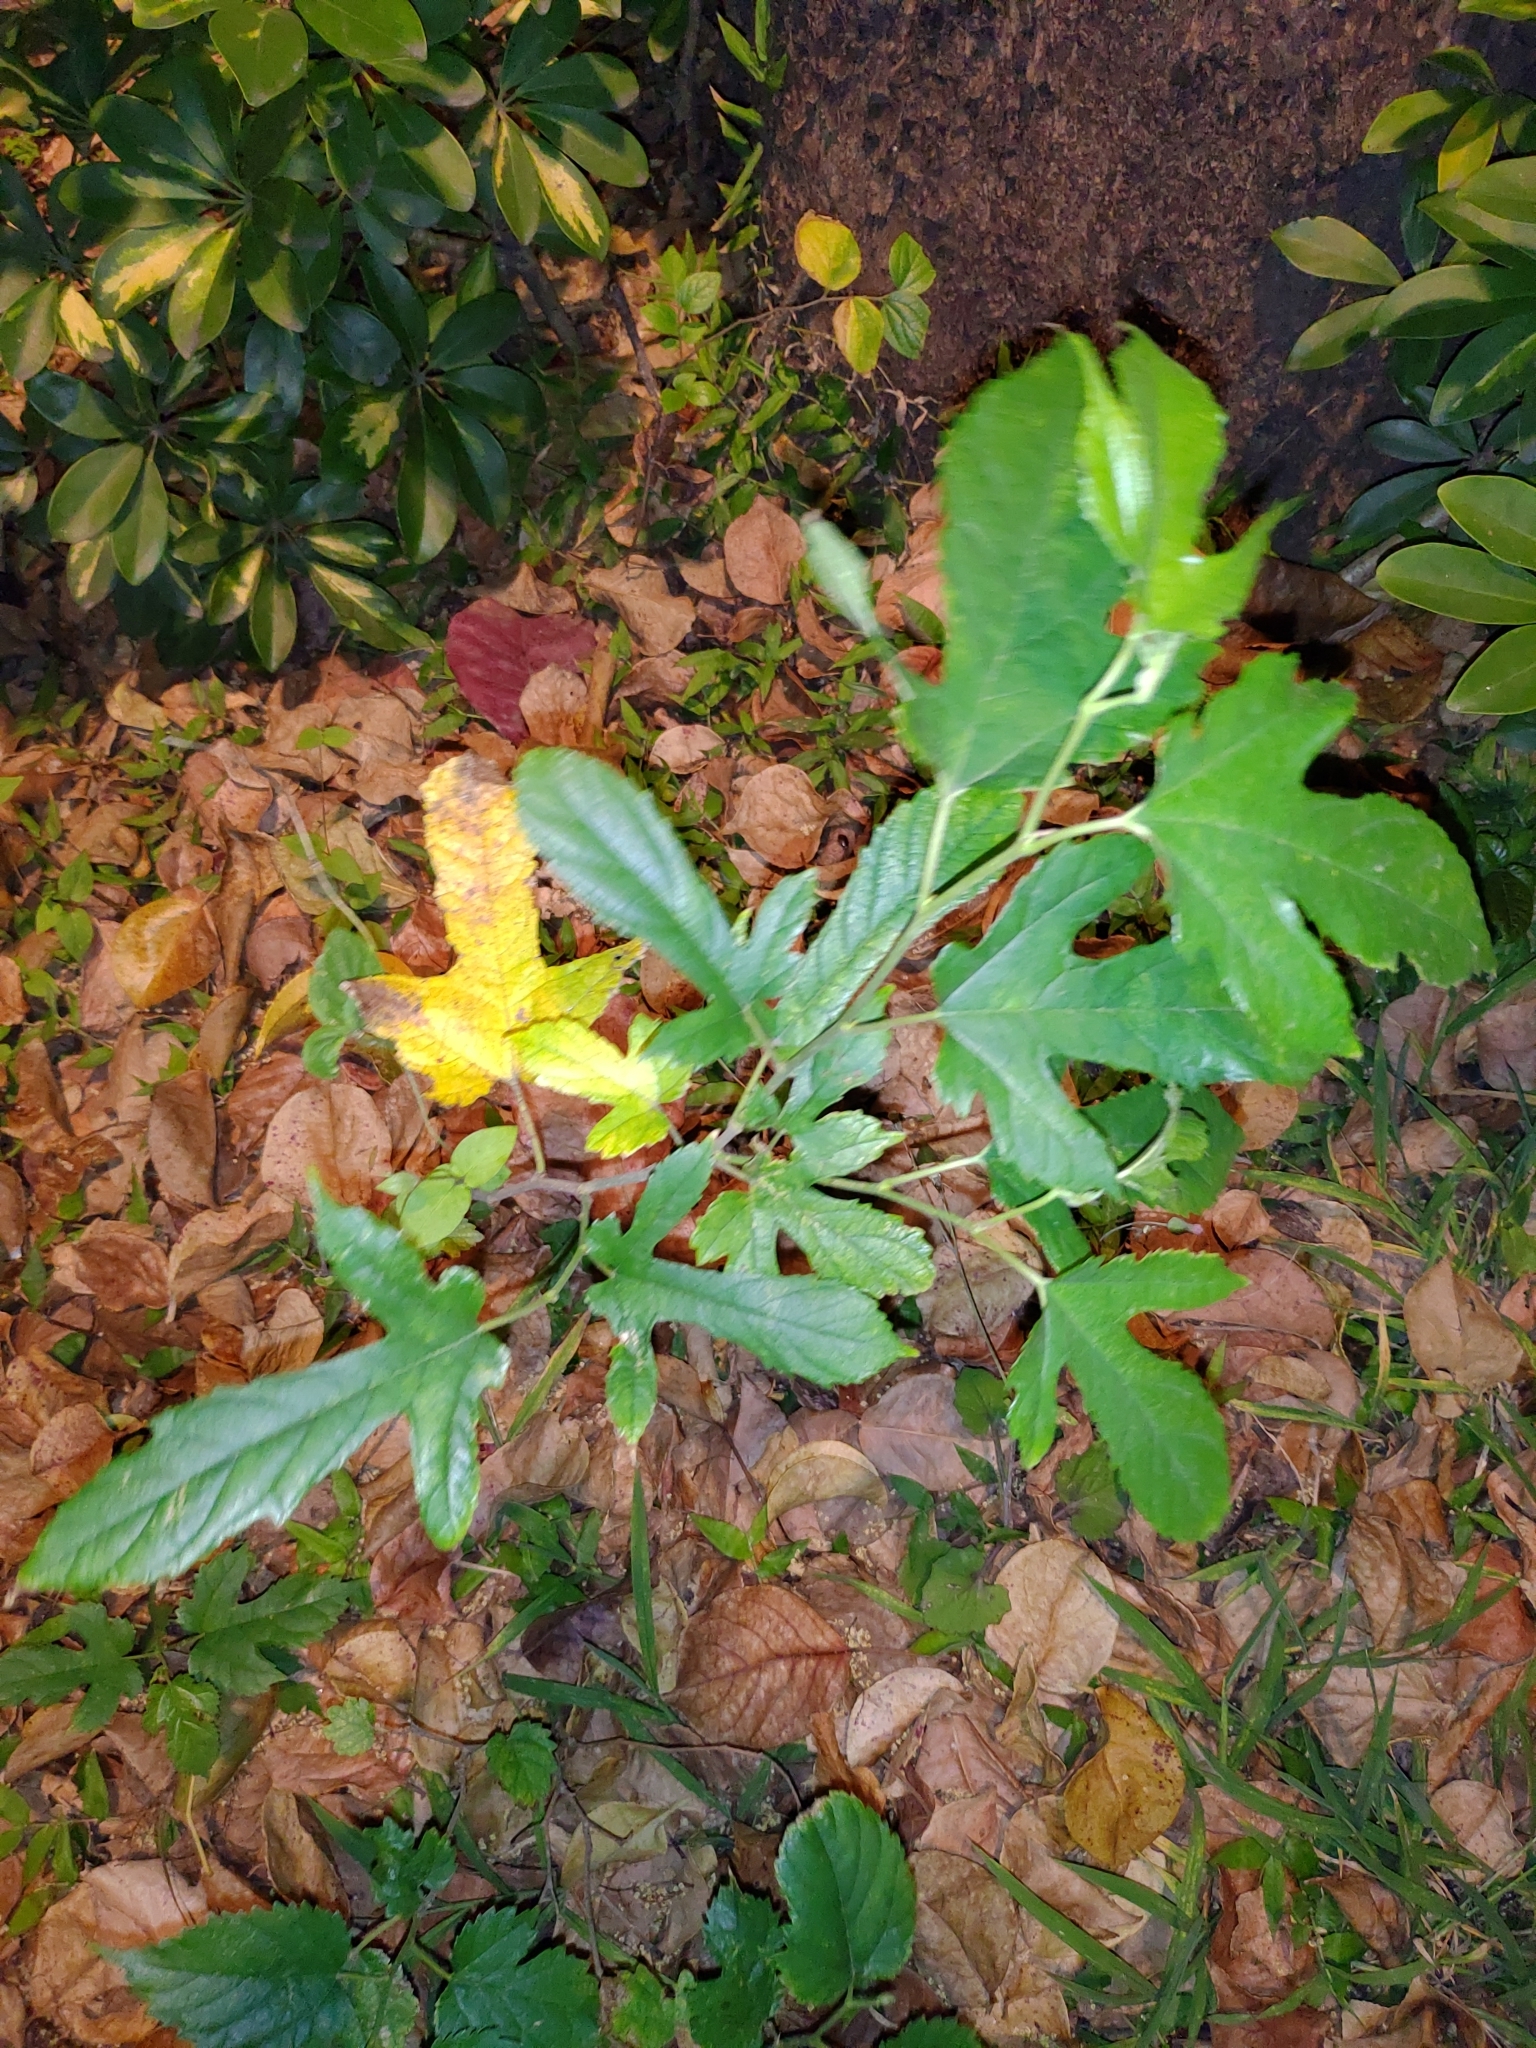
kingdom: Plantae
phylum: Tracheophyta
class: Magnoliopsida
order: Rosales
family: Moraceae
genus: Morus
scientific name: Morus indica
